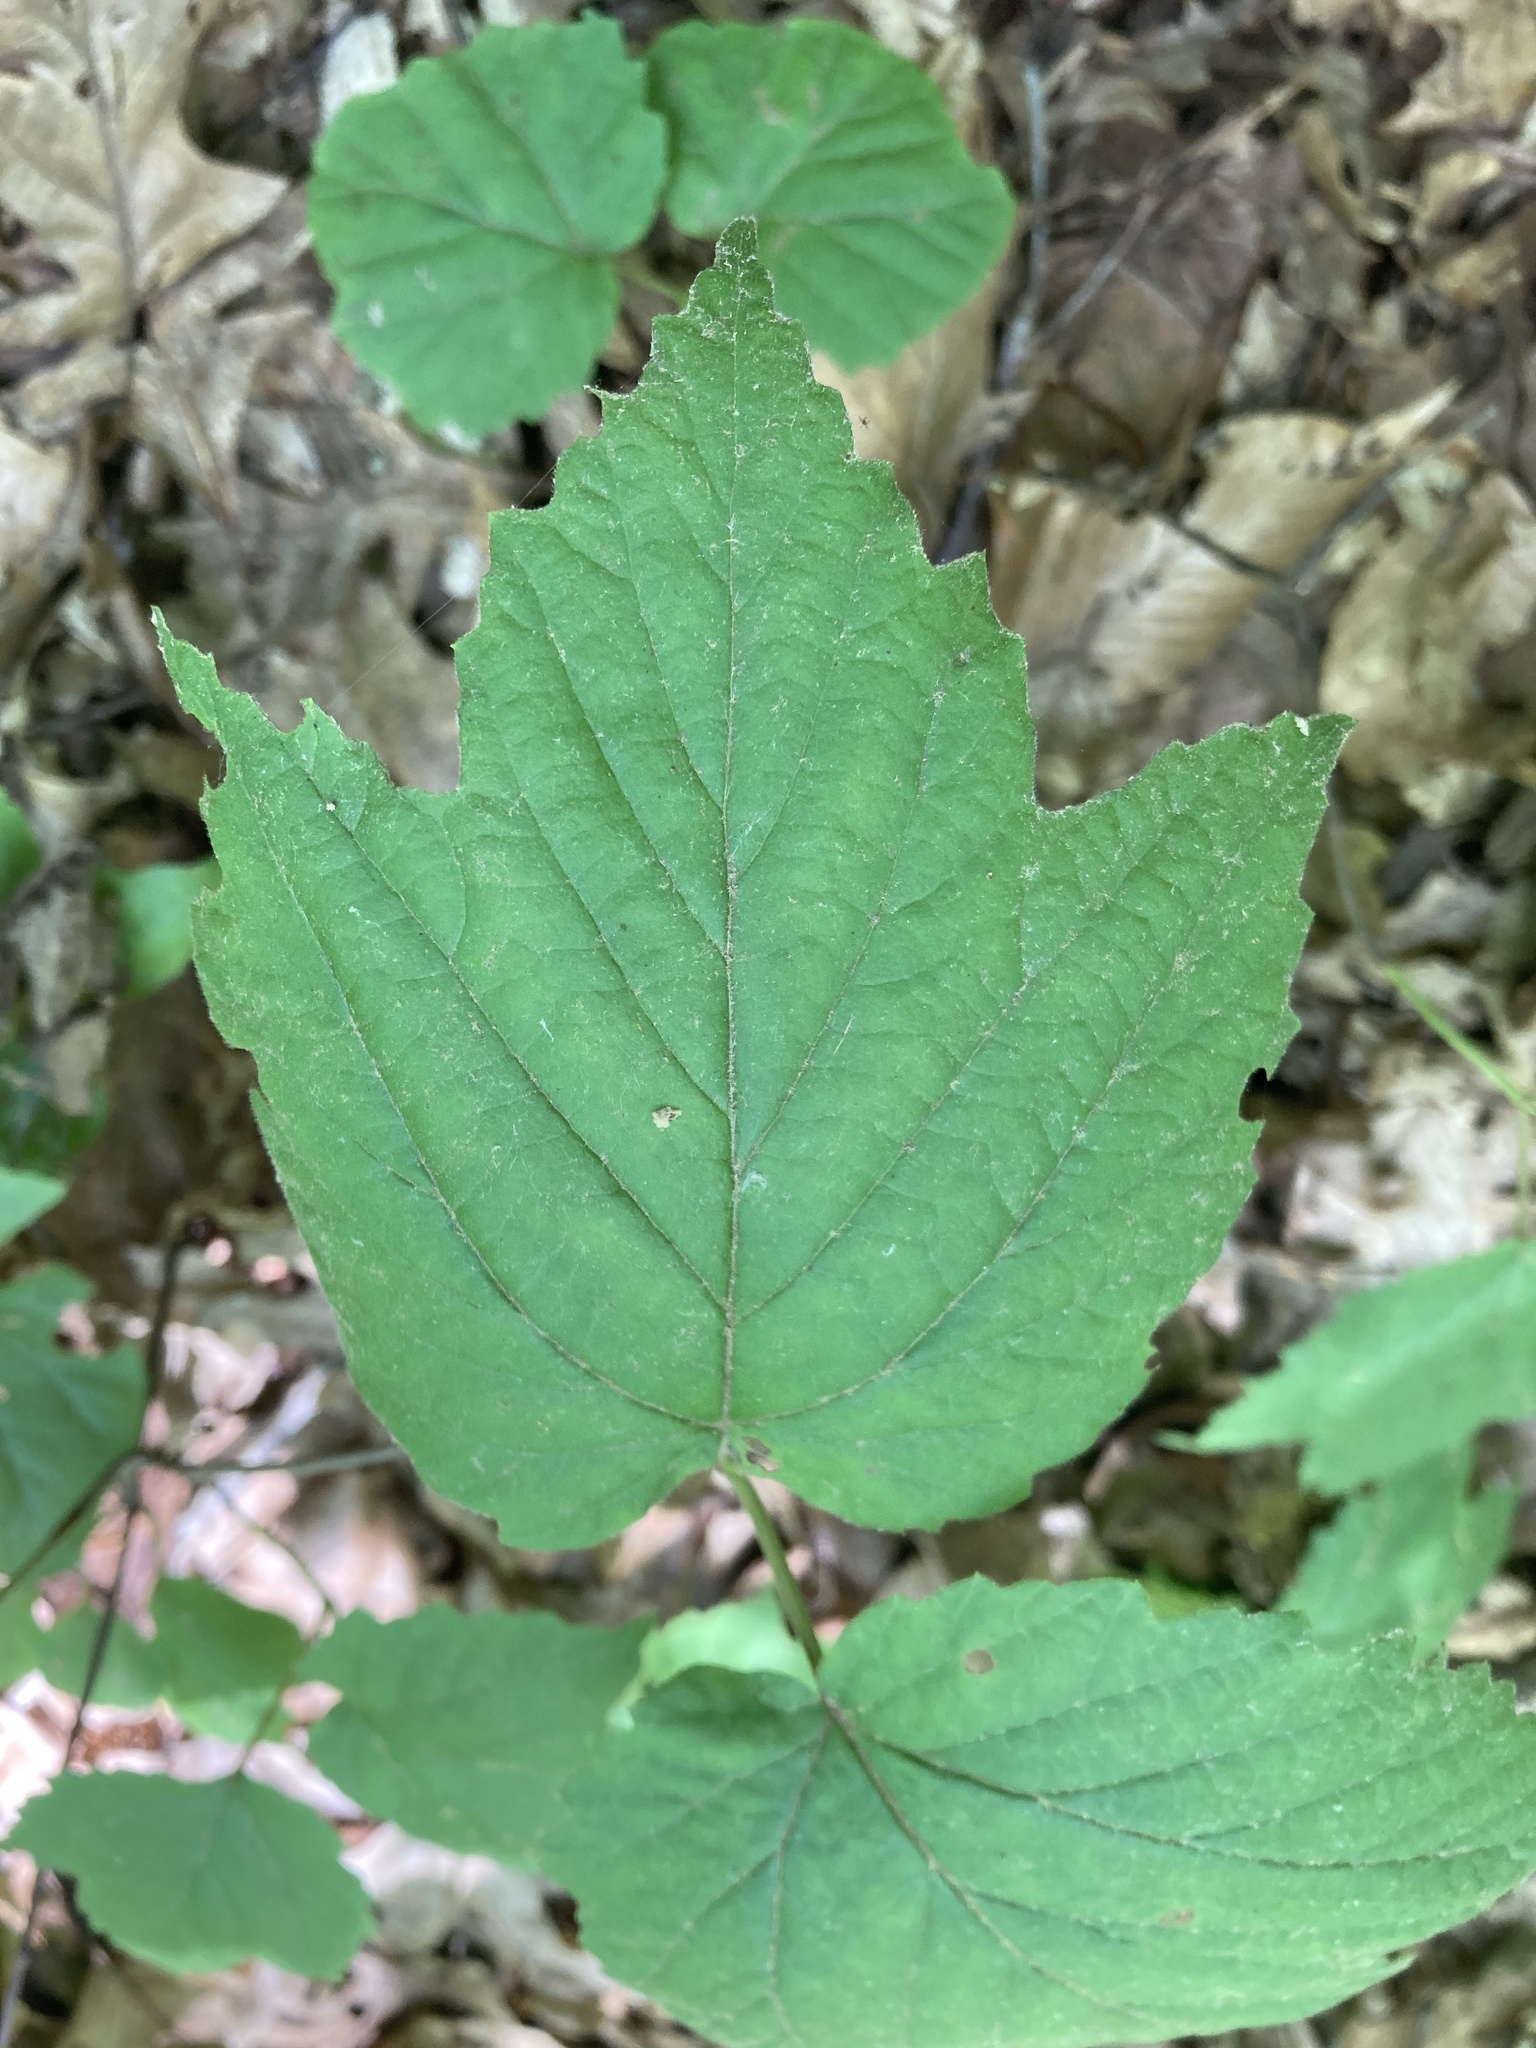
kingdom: Plantae
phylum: Tracheophyta
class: Magnoliopsida
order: Dipsacales
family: Viburnaceae
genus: Viburnum
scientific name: Viburnum acerifolium
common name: Dockmackie
